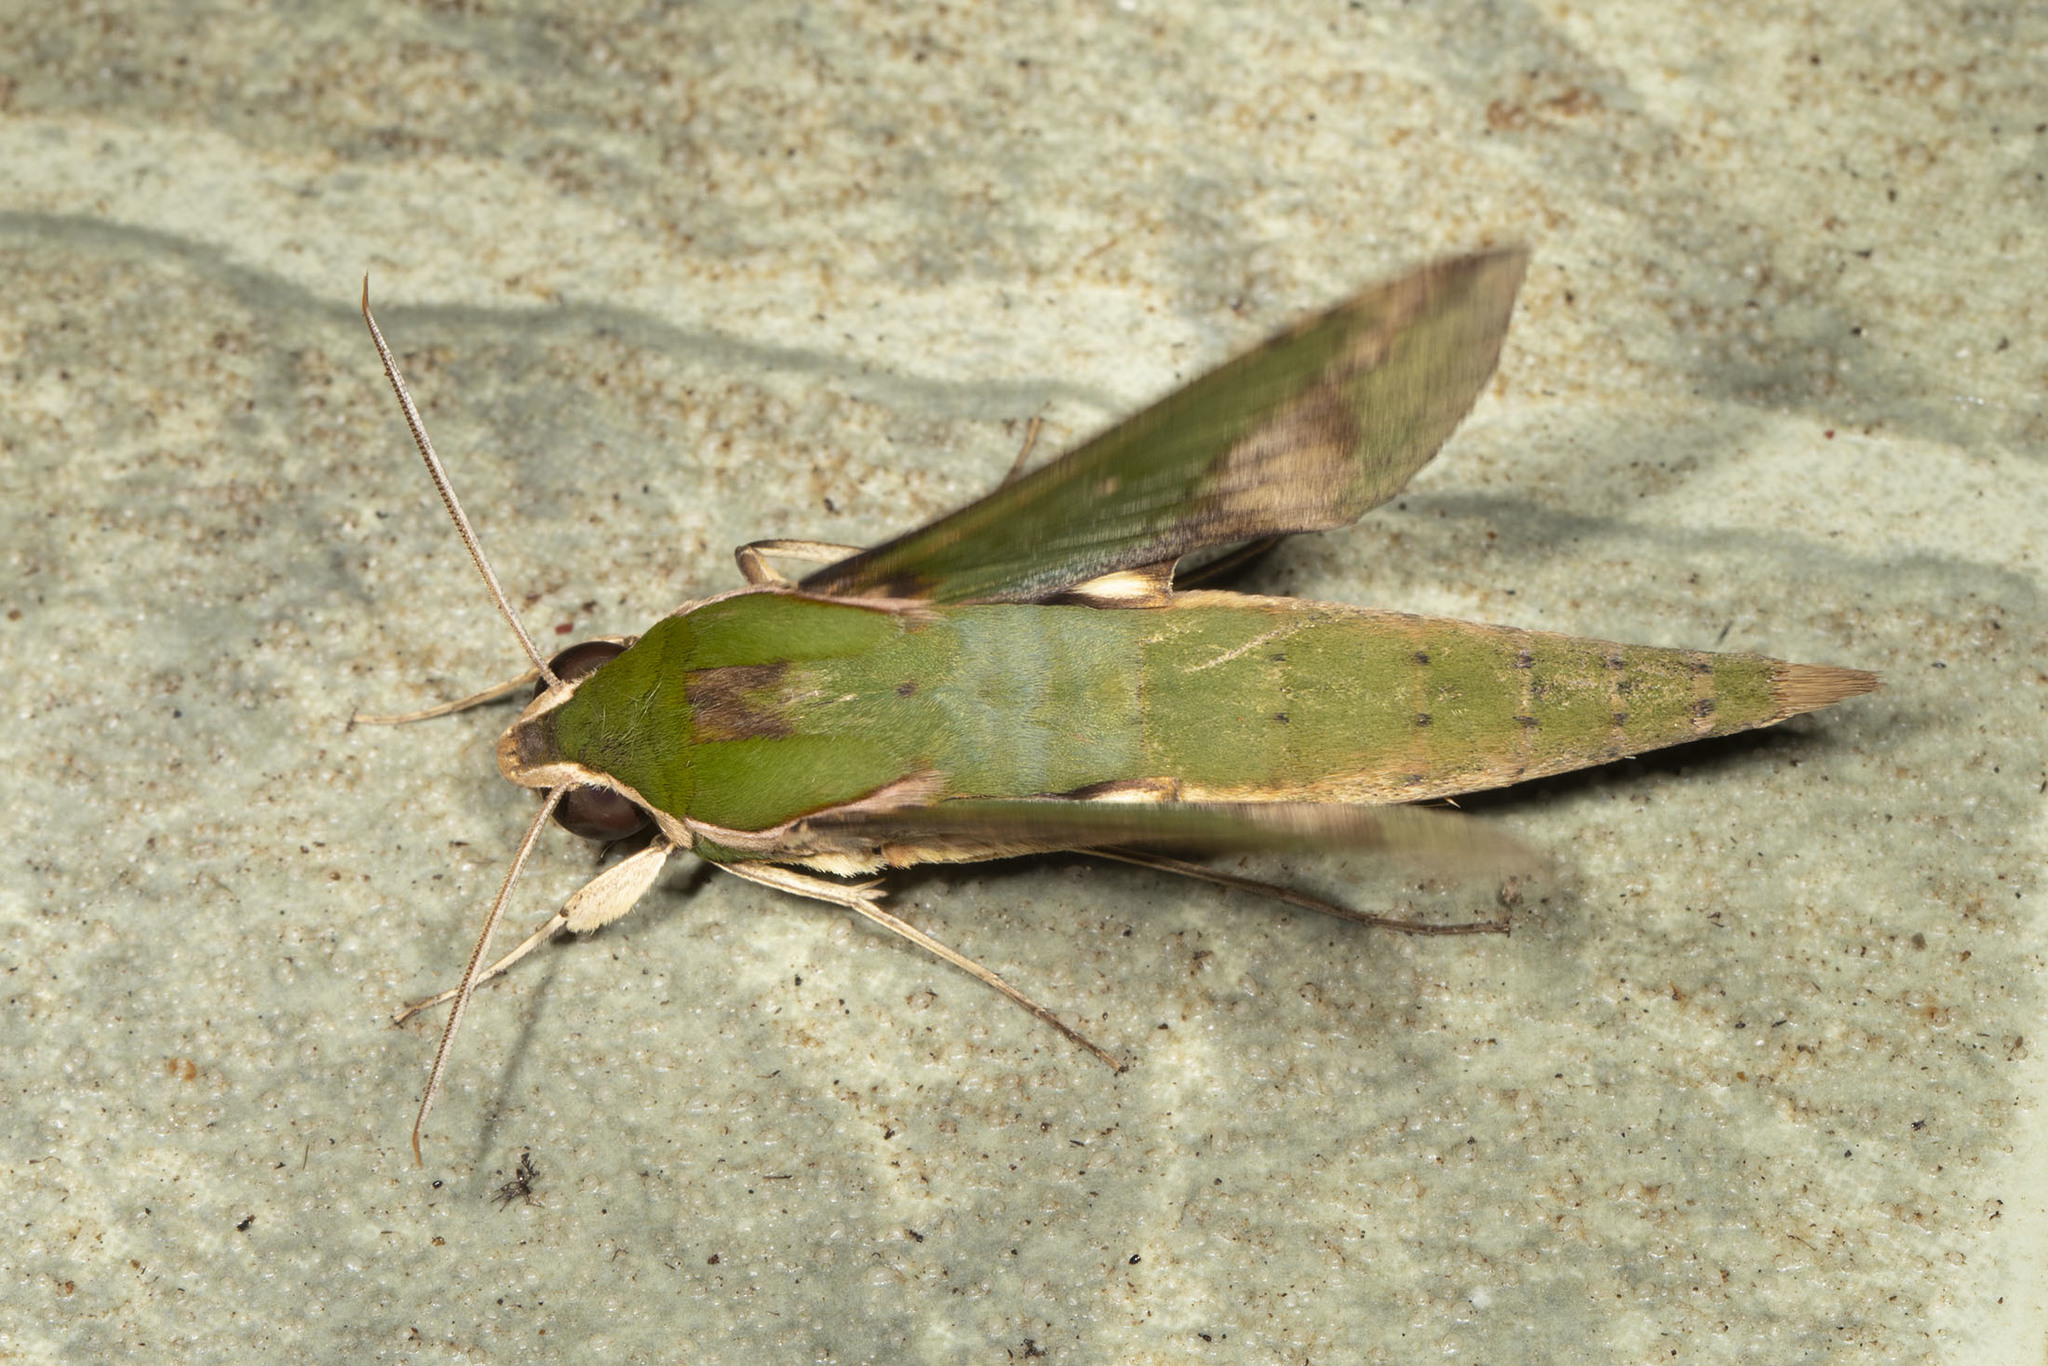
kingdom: Animalia
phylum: Arthropoda
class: Insecta
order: Lepidoptera
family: Sphingidae
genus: Xylophanes
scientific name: Xylophanes chiron
